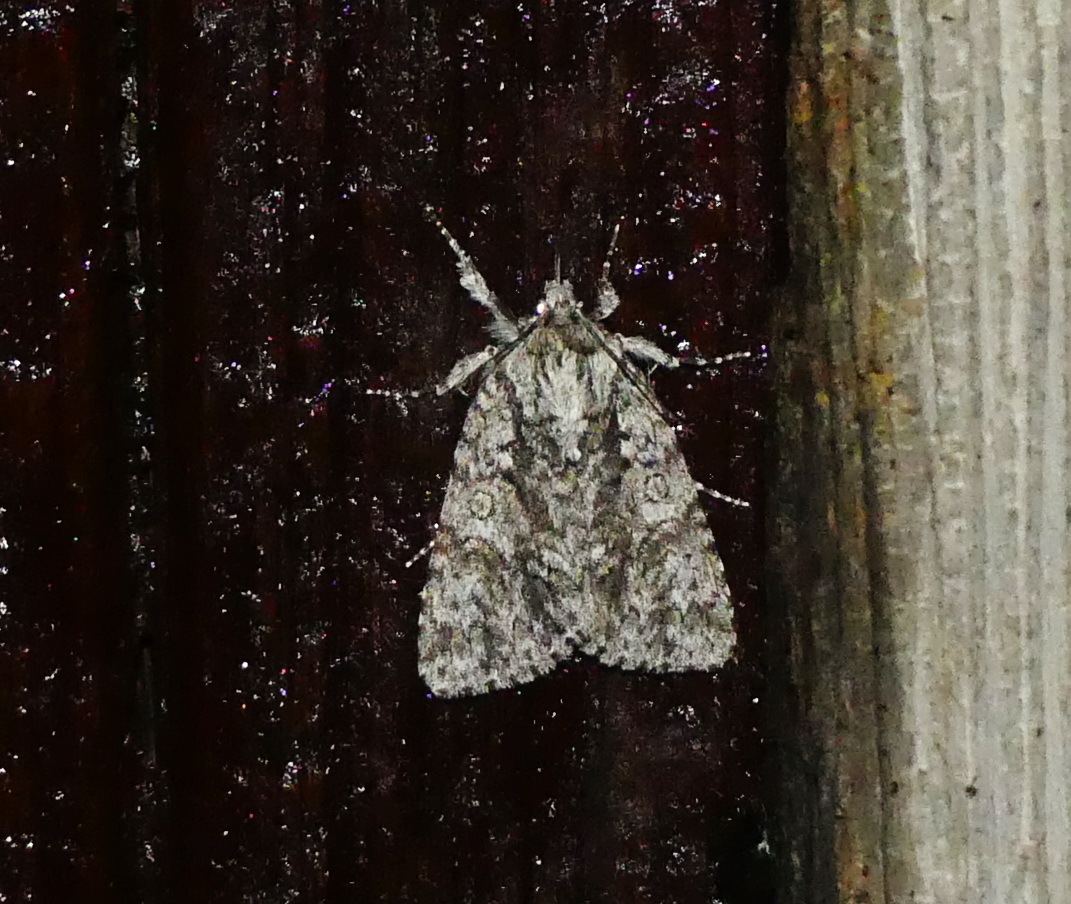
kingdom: Animalia
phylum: Arthropoda
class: Insecta
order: Lepidoptera
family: Noctuidae
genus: Acronicta
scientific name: Acronicta impressa
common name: Impressed dagger
